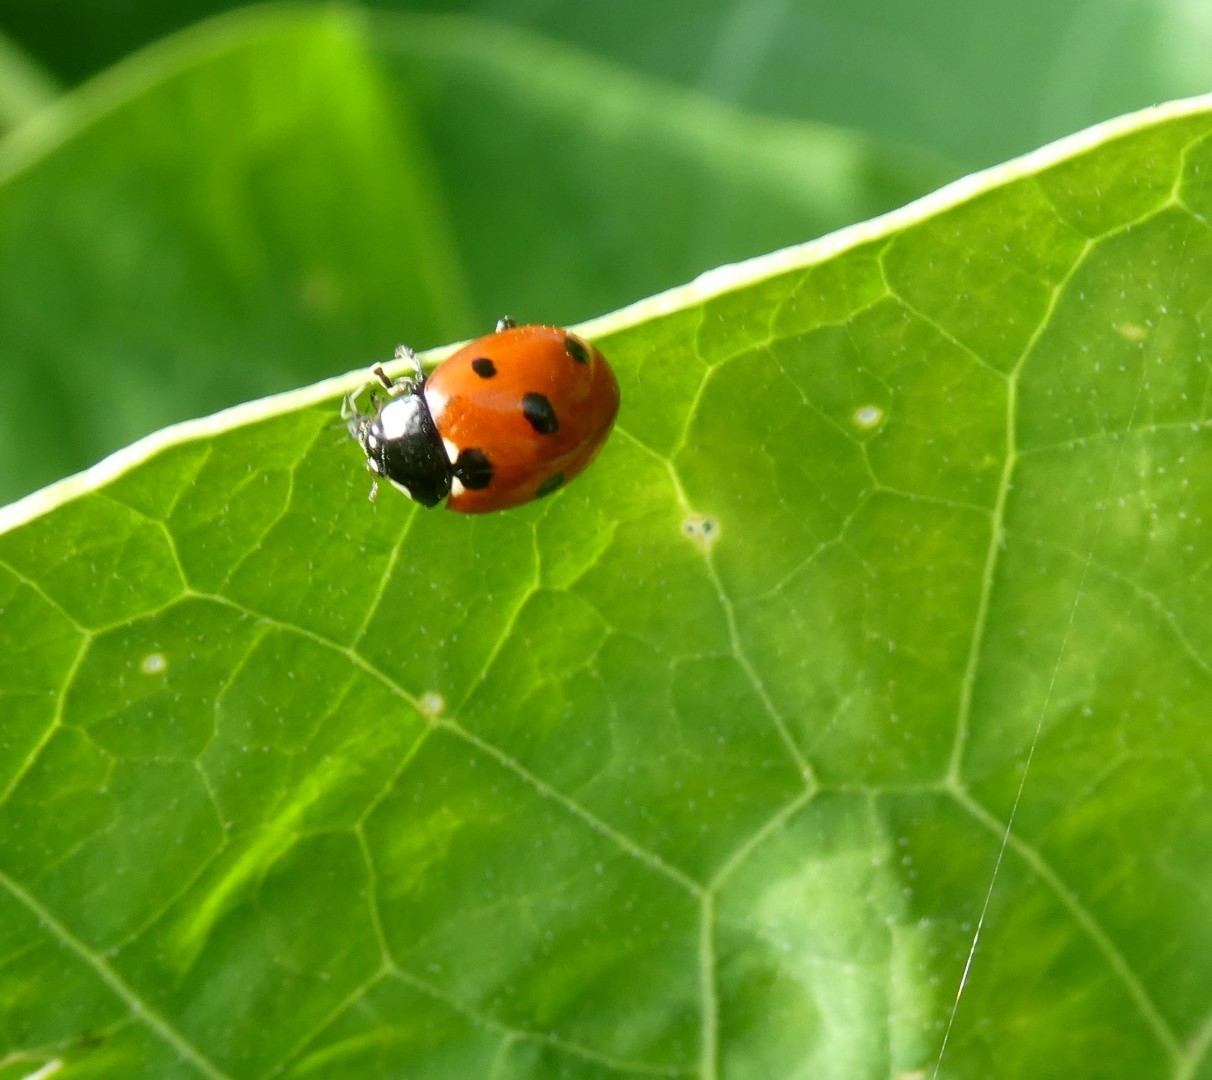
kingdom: Animalia
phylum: Arthropoda
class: Insecta
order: Coleoptera
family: Coccinellidae
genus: Coccinella
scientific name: Coccinella septempunctata
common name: Sevenspotted lady beetle
